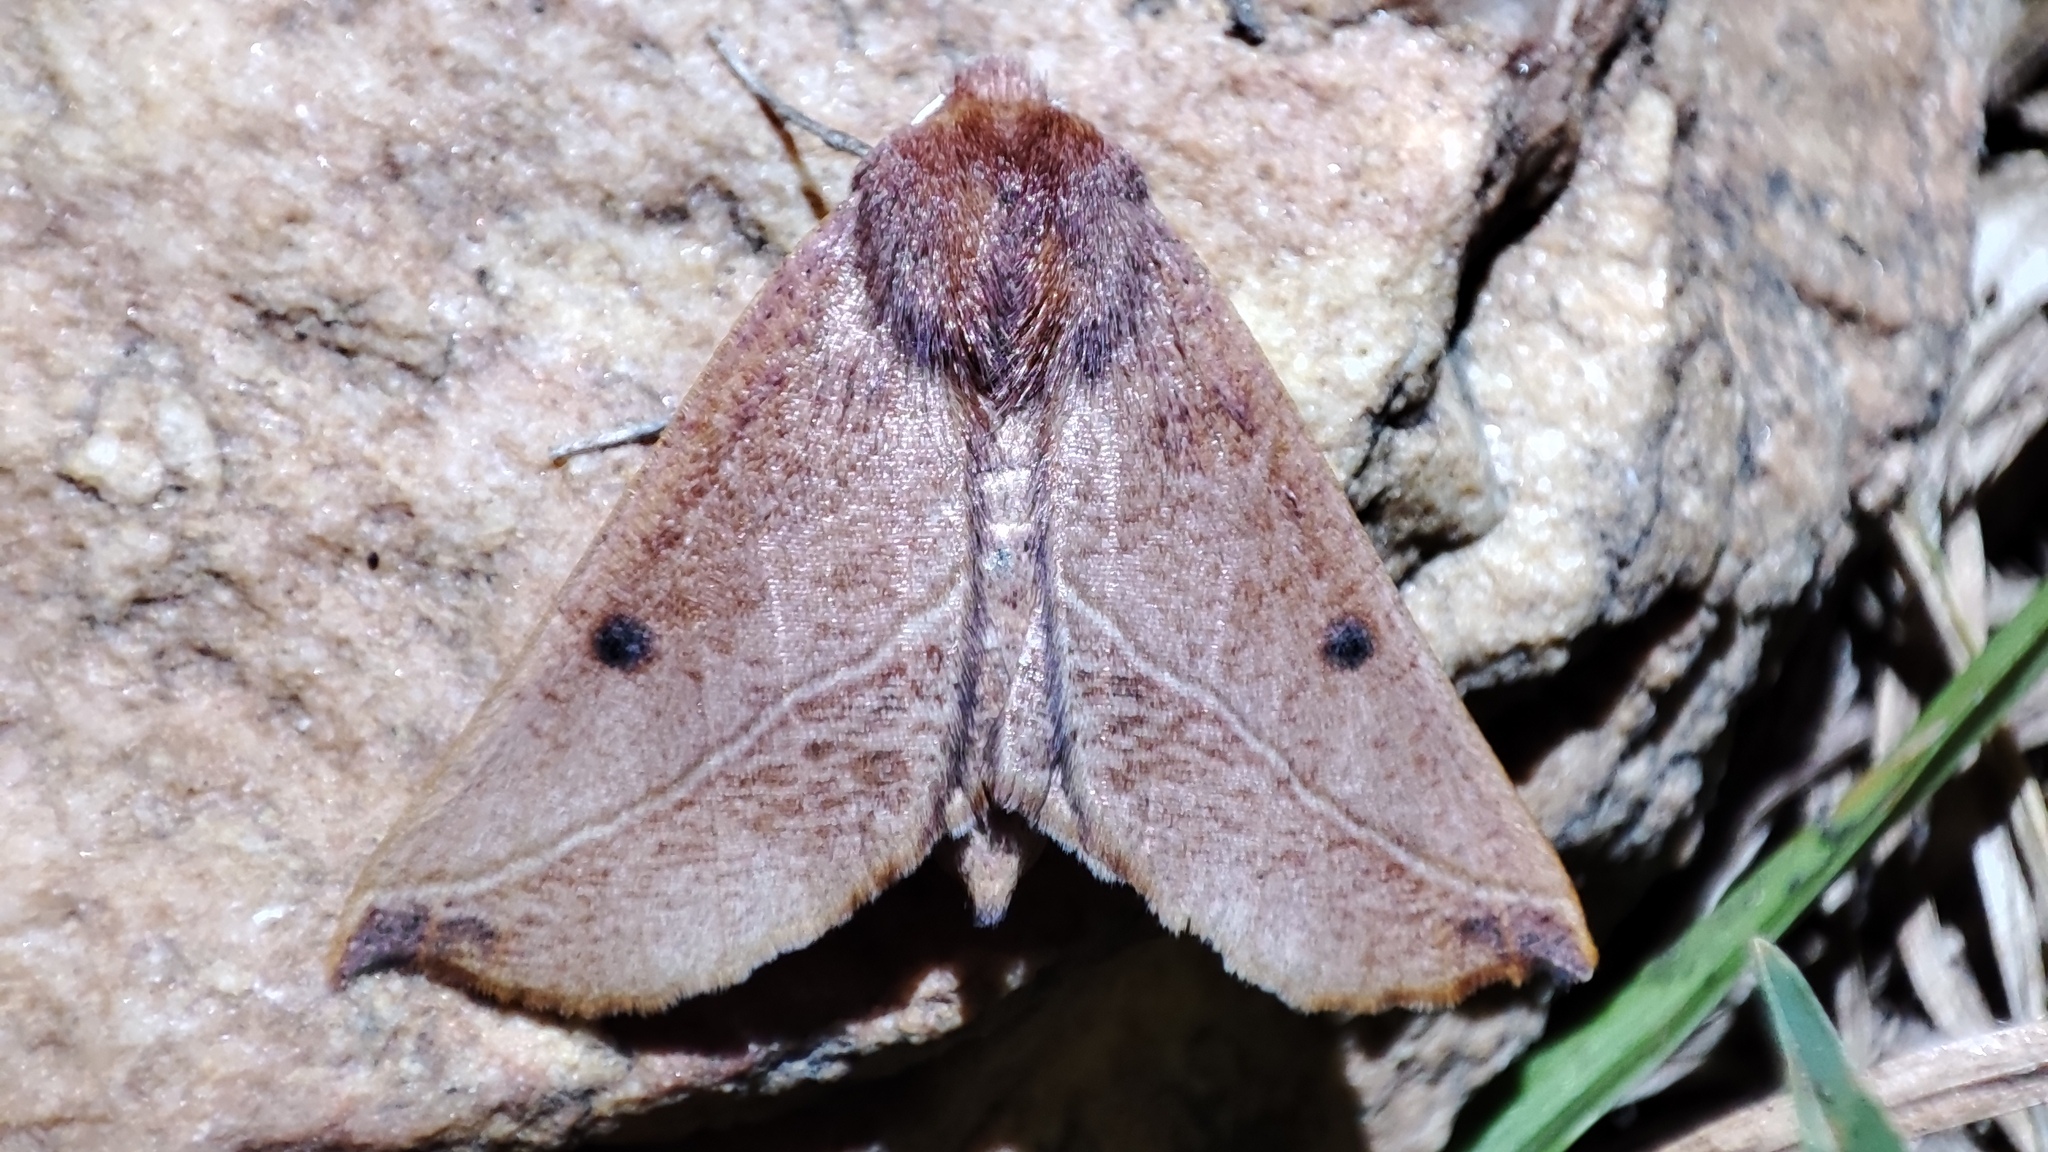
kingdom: Animalia
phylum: Arthropoda
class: Insecta
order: Lepidoptera
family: Geometridae
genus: Derrioides
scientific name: Derrioides villaria
